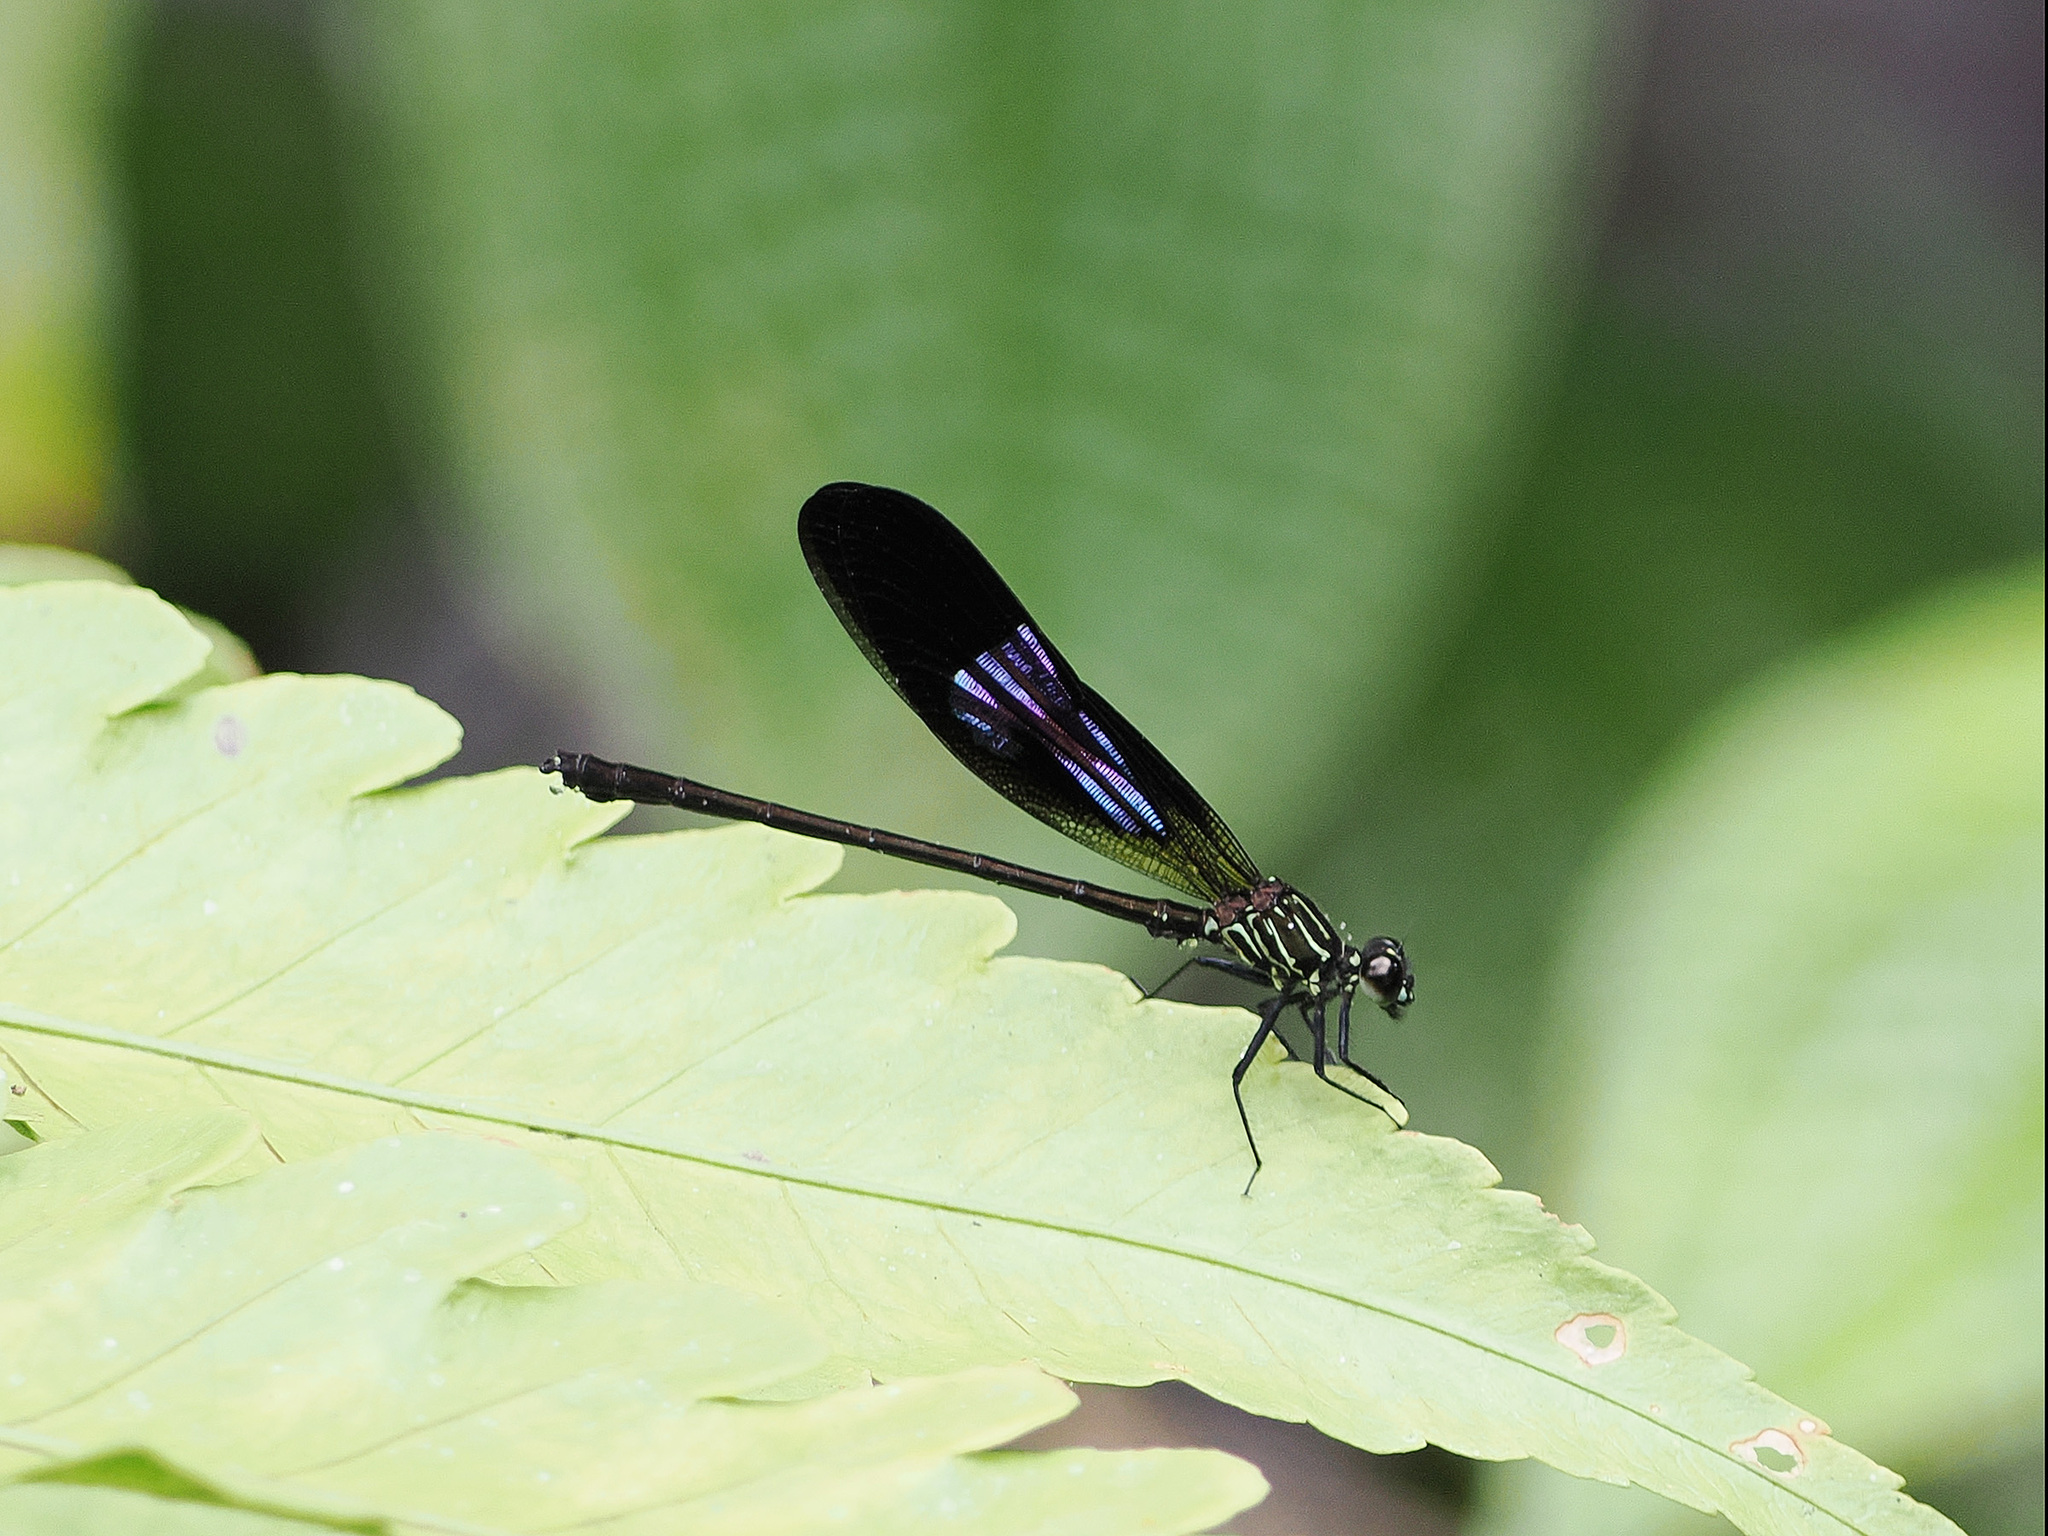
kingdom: Animalia
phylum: Arthropoda
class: Insecta
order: Odonata
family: Euphaeidae
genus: Euphaea
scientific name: Euphaea aspasia
